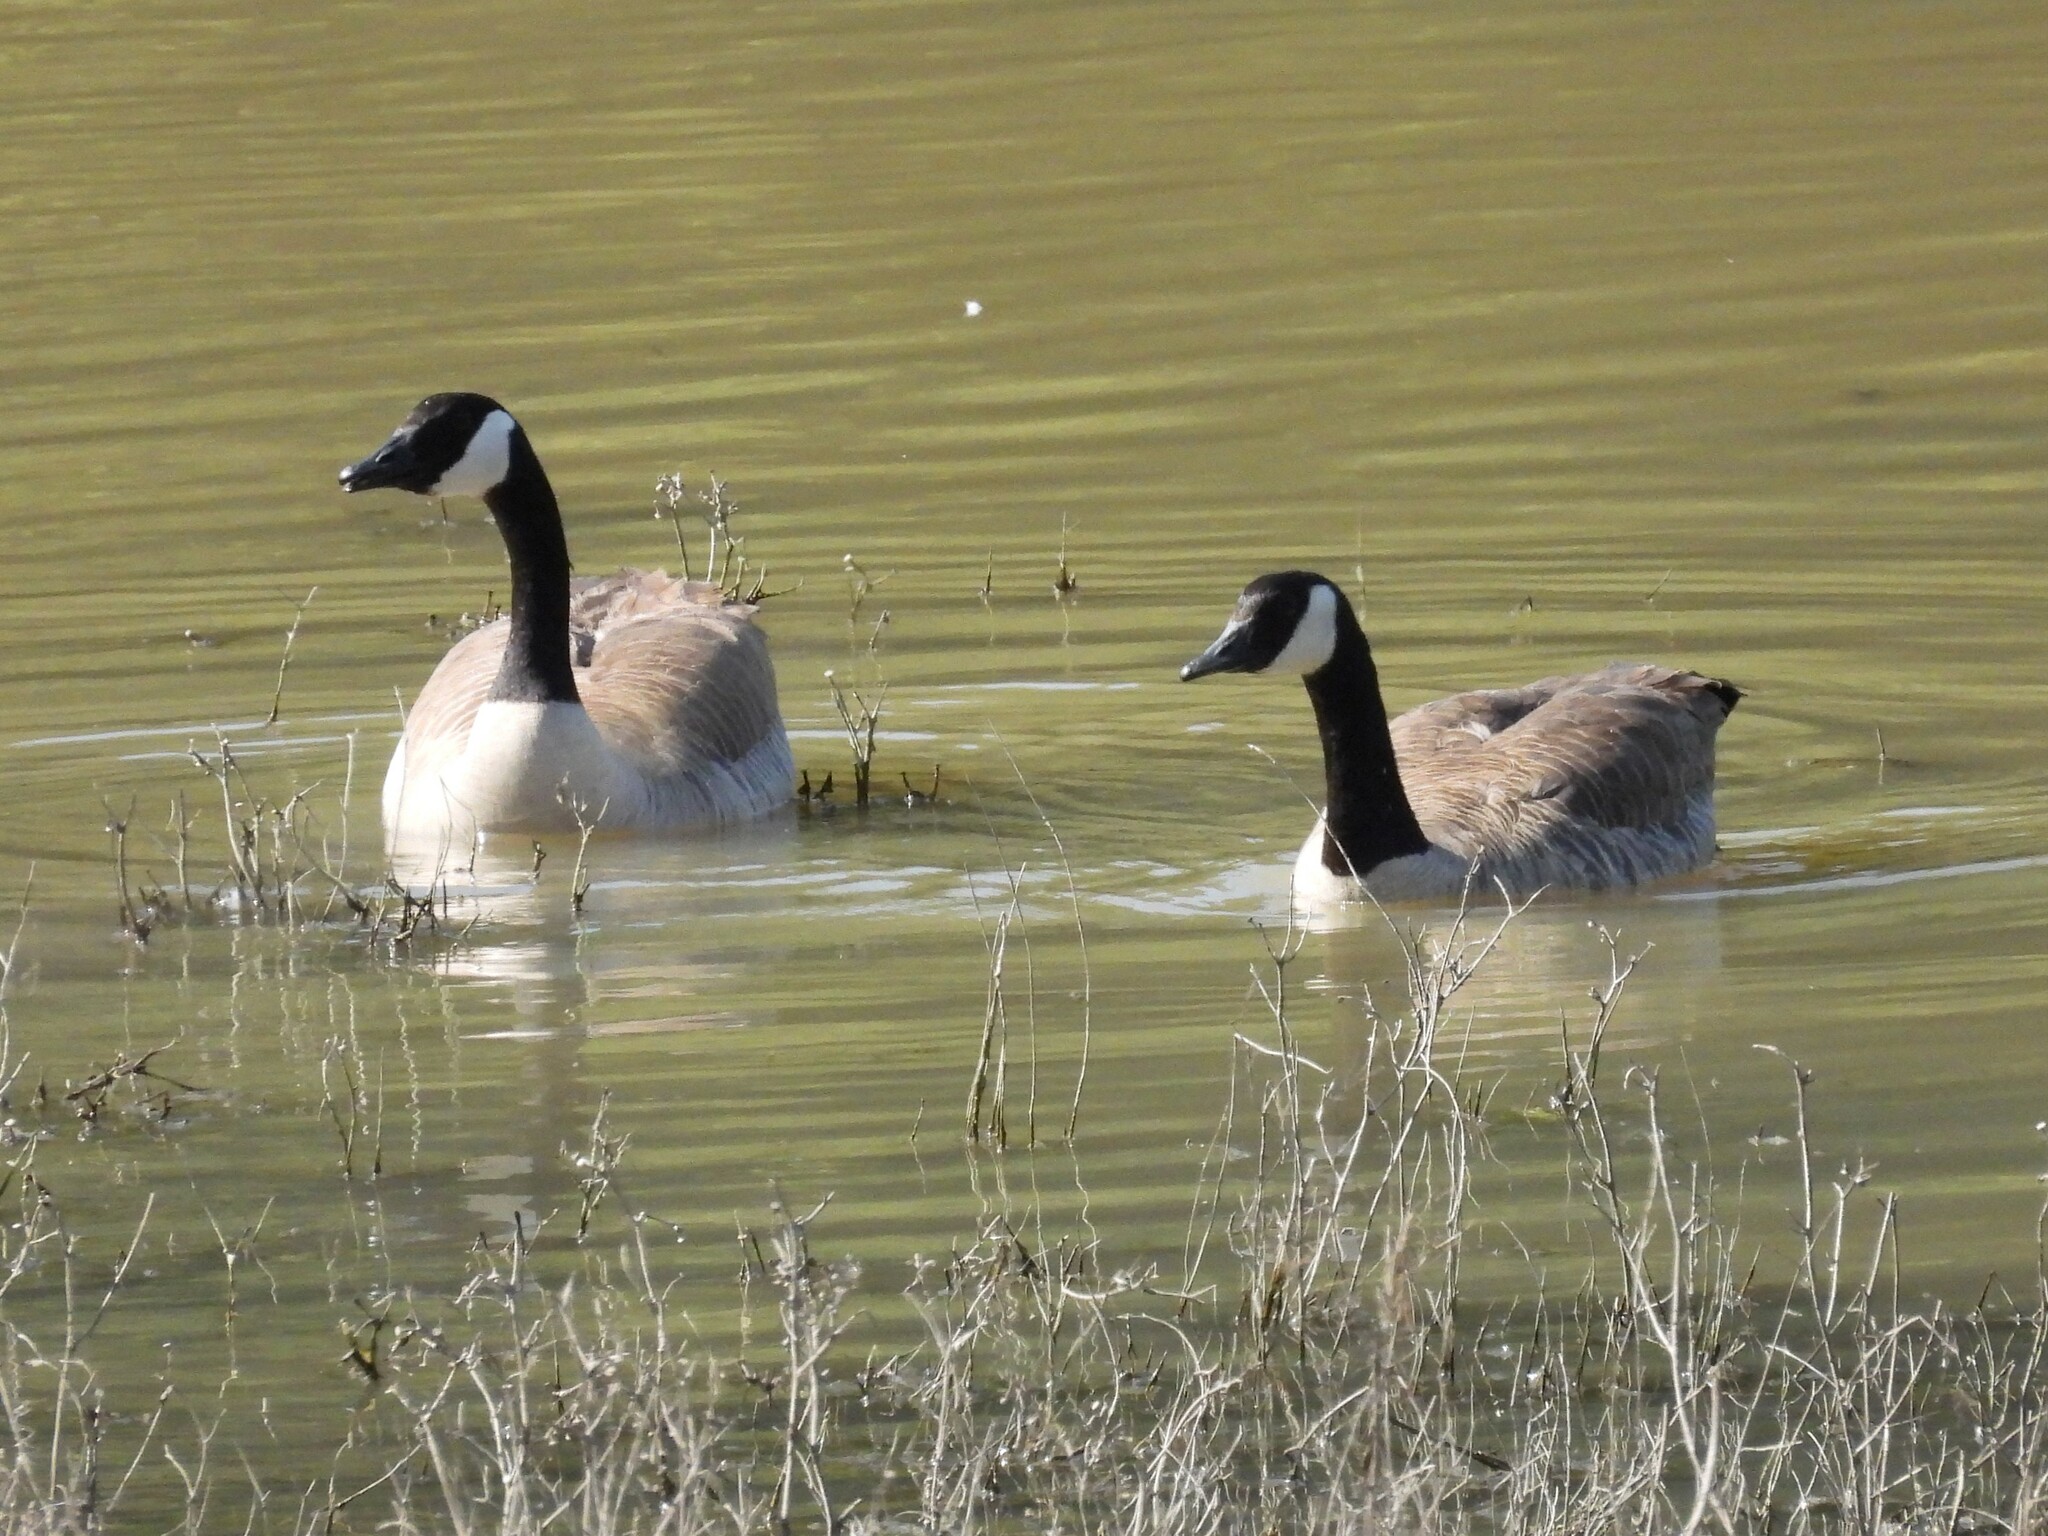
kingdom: Animalia
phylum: Chordata
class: Aves
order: Anseriformes
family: Anatidae
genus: Branta
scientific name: Branta canadensis
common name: Canada goose
